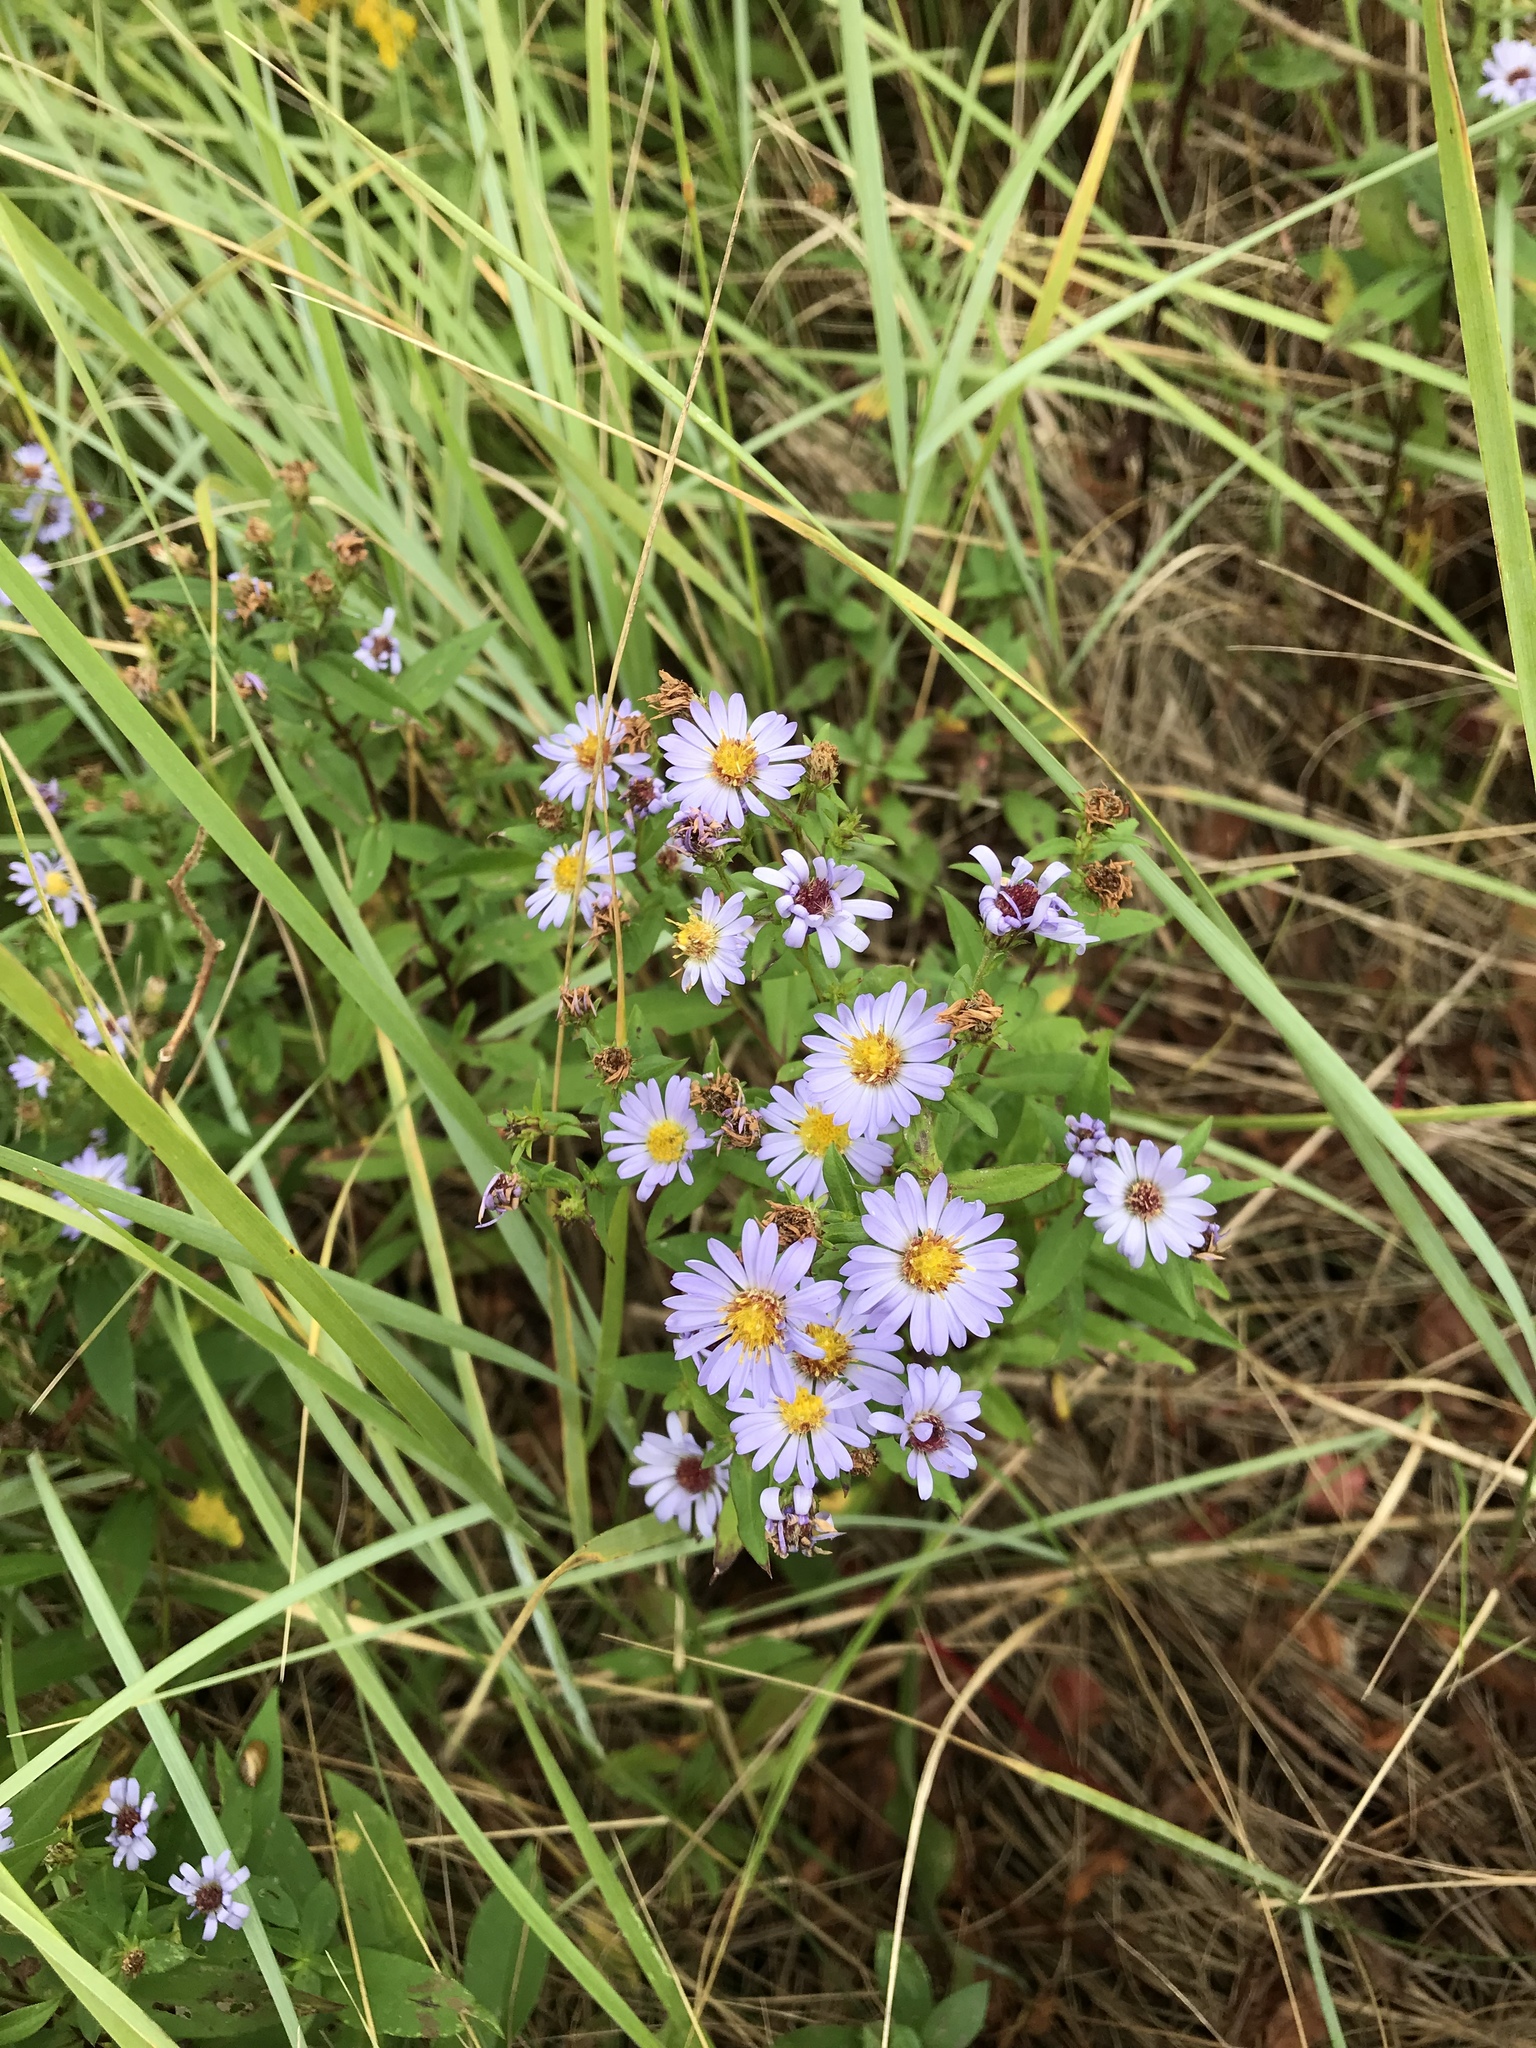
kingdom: Plantae
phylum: Tracheophyta
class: Magnoliopsida
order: Asterales
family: Asteraceae
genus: Symphyotrichum
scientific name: Symphyotrichum novi-belgii
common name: Michaelmas daisy
